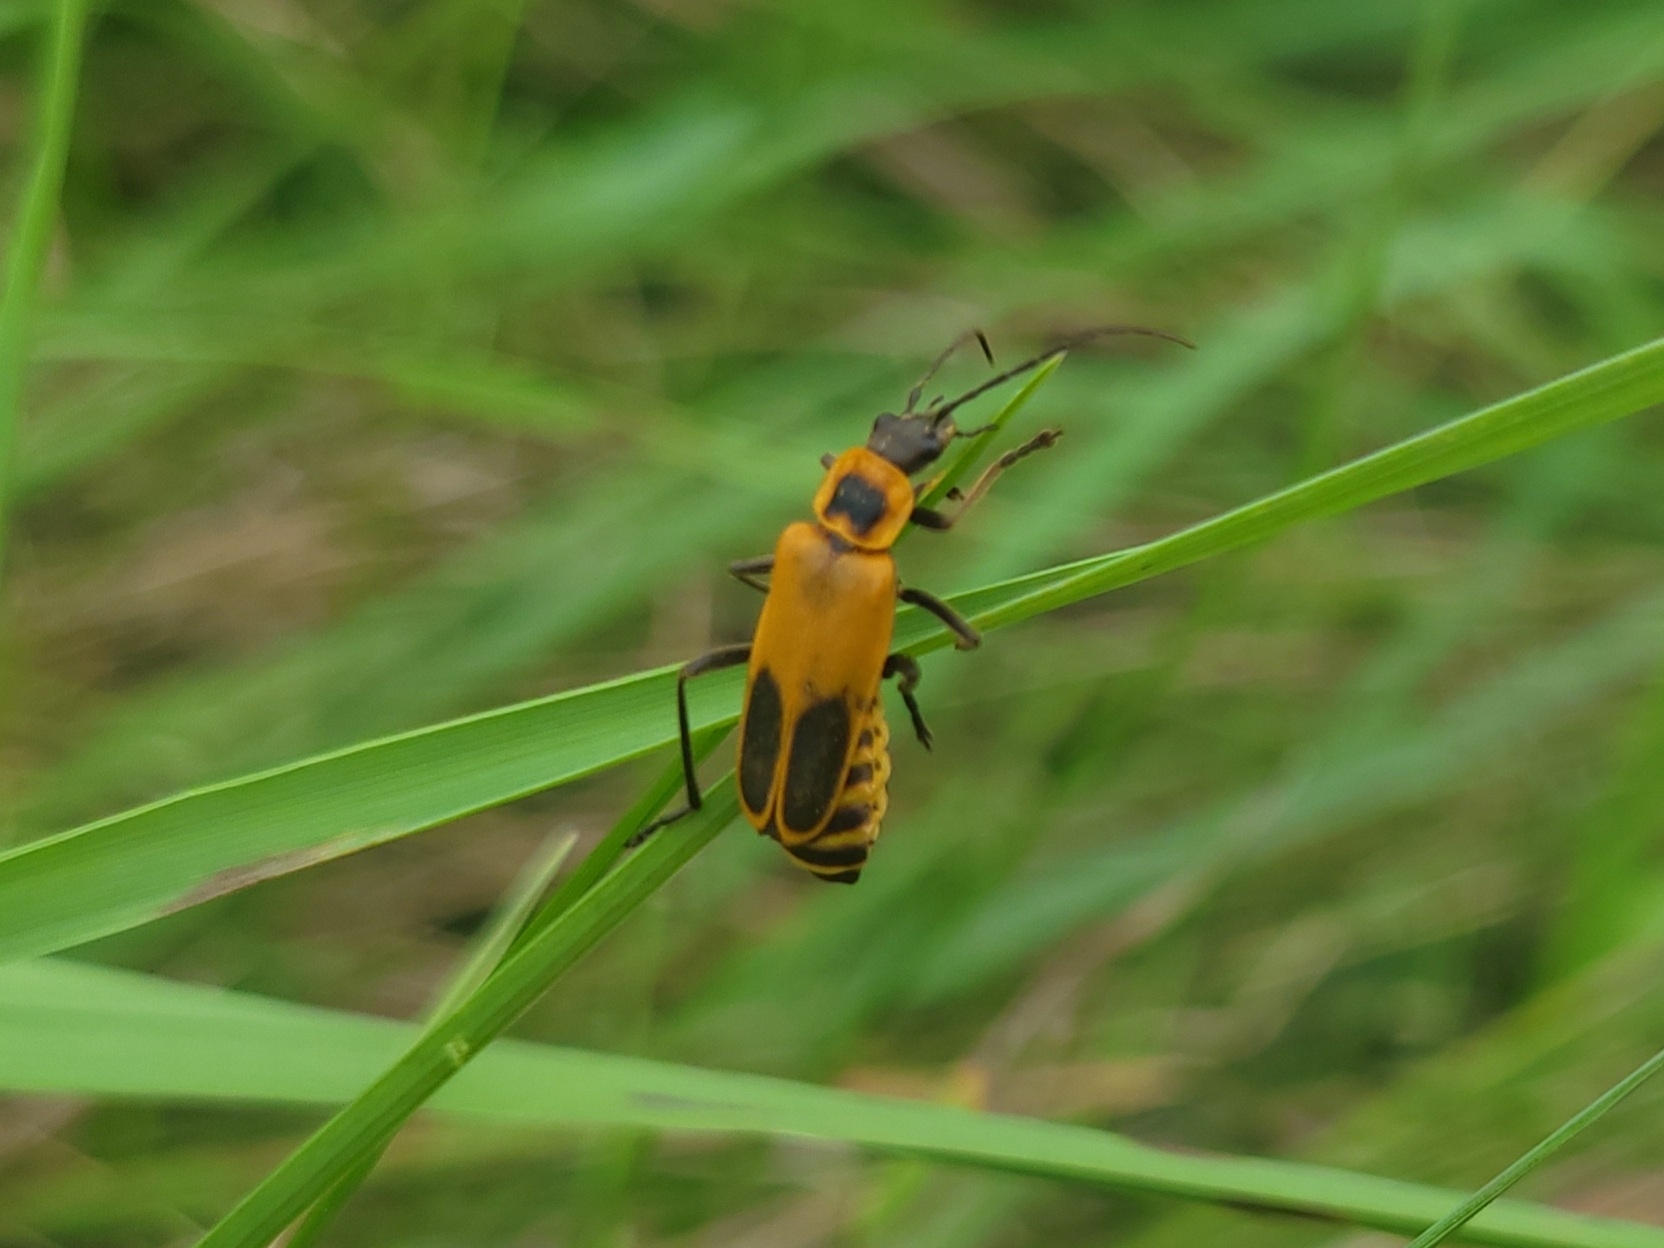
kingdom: Animalia
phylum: Arthropoda
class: Insecta
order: Coleoptera
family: Cantharidae
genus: Chauliognathus
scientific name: Chauliognathus pensylvanicus
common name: Goldenrod soldier beetle
